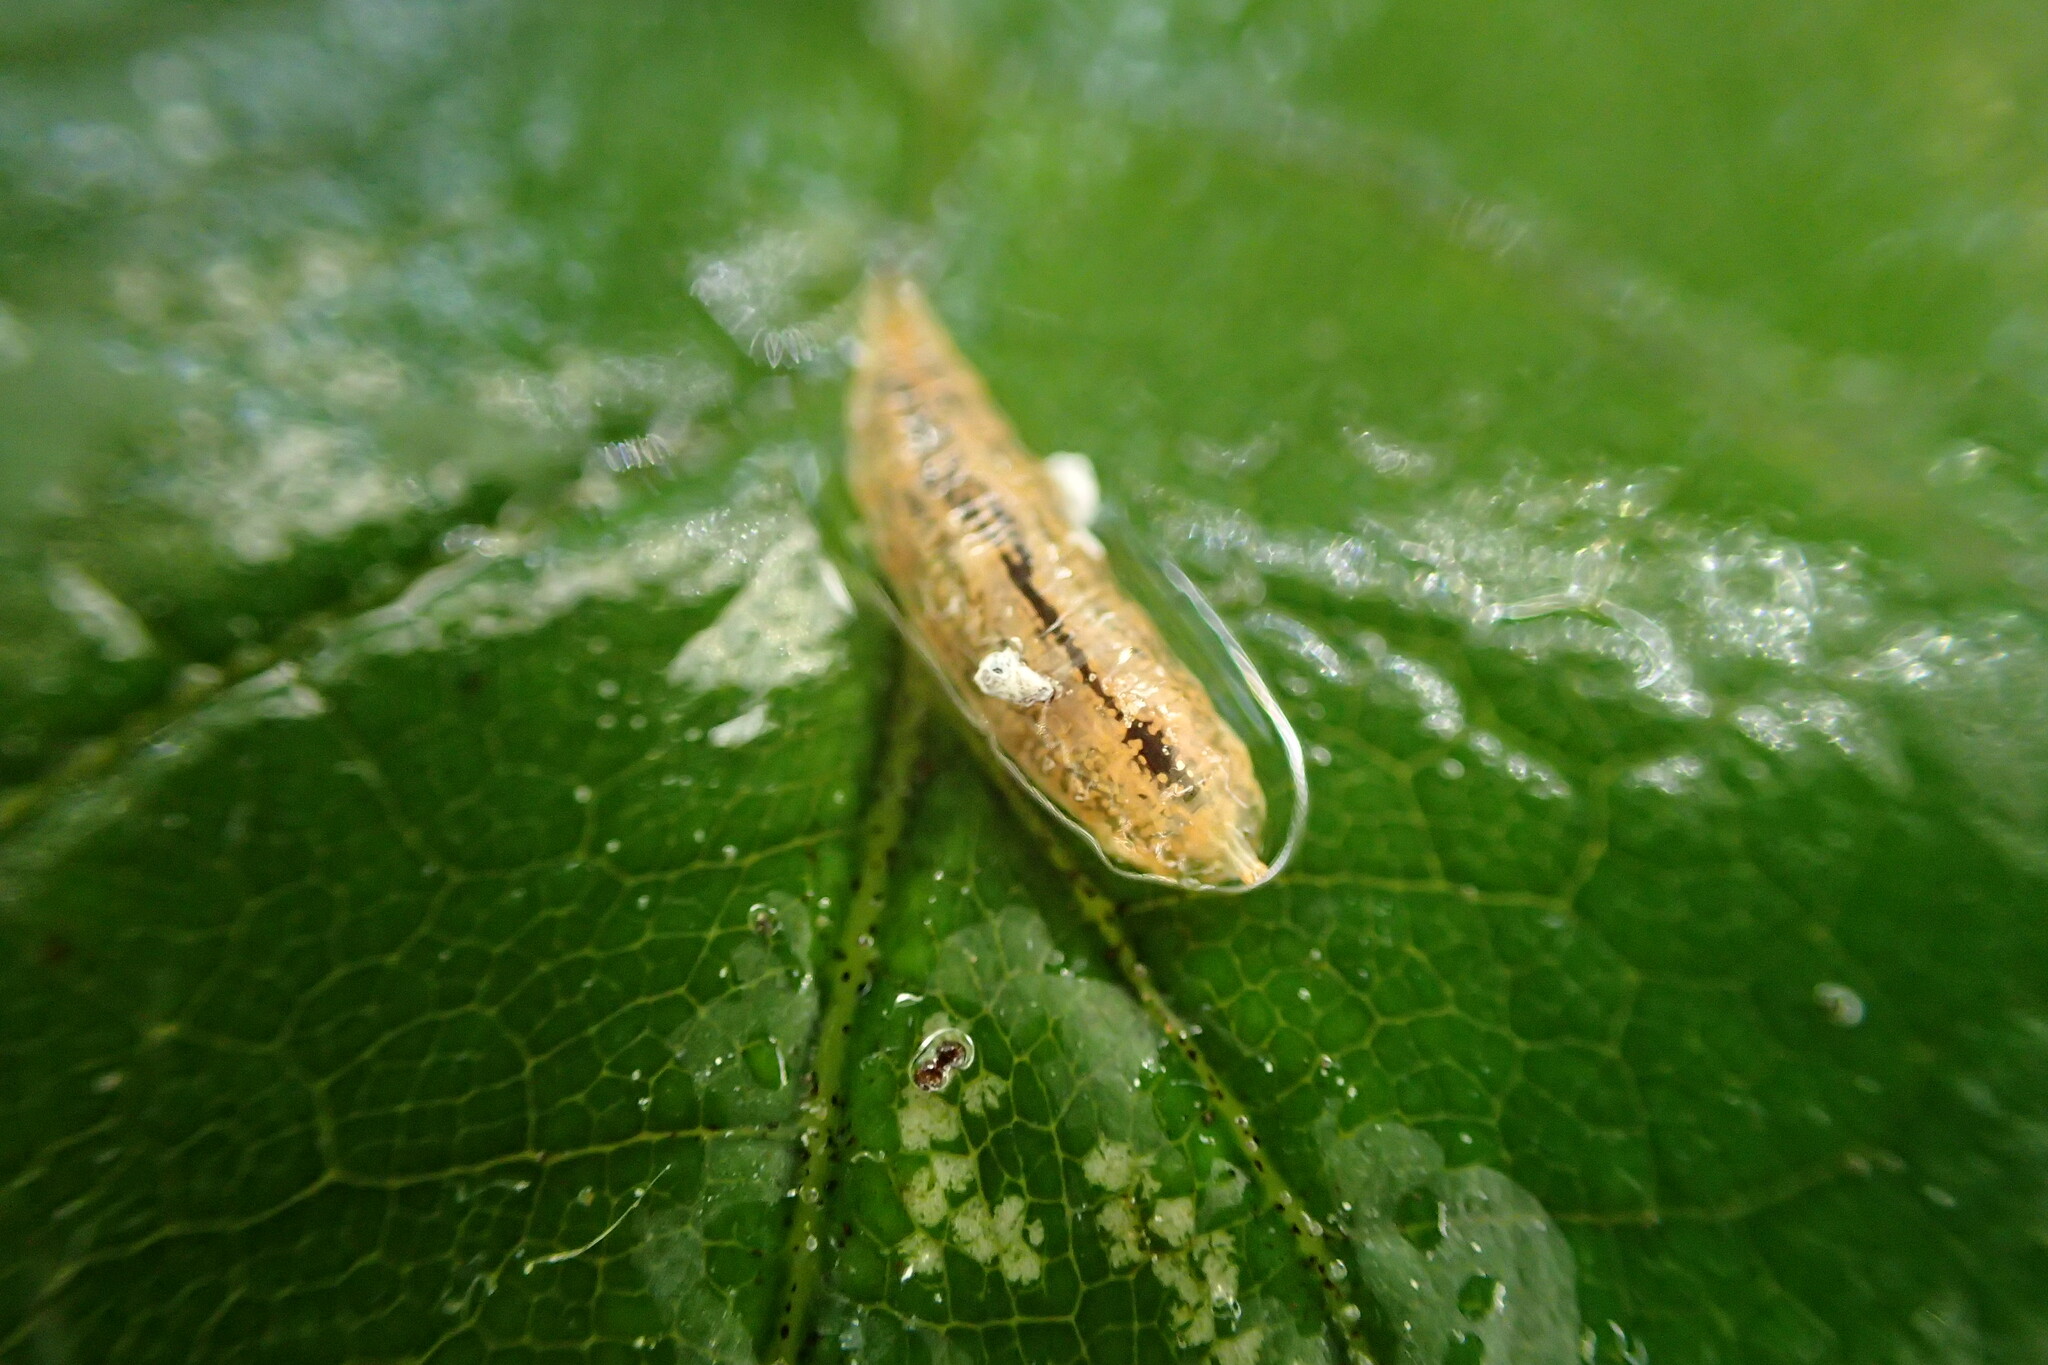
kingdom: Animalia
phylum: Arthropoda
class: Insecta
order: Diptera
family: Syrphidae
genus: Parasyrphus
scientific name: Parasyrphus
